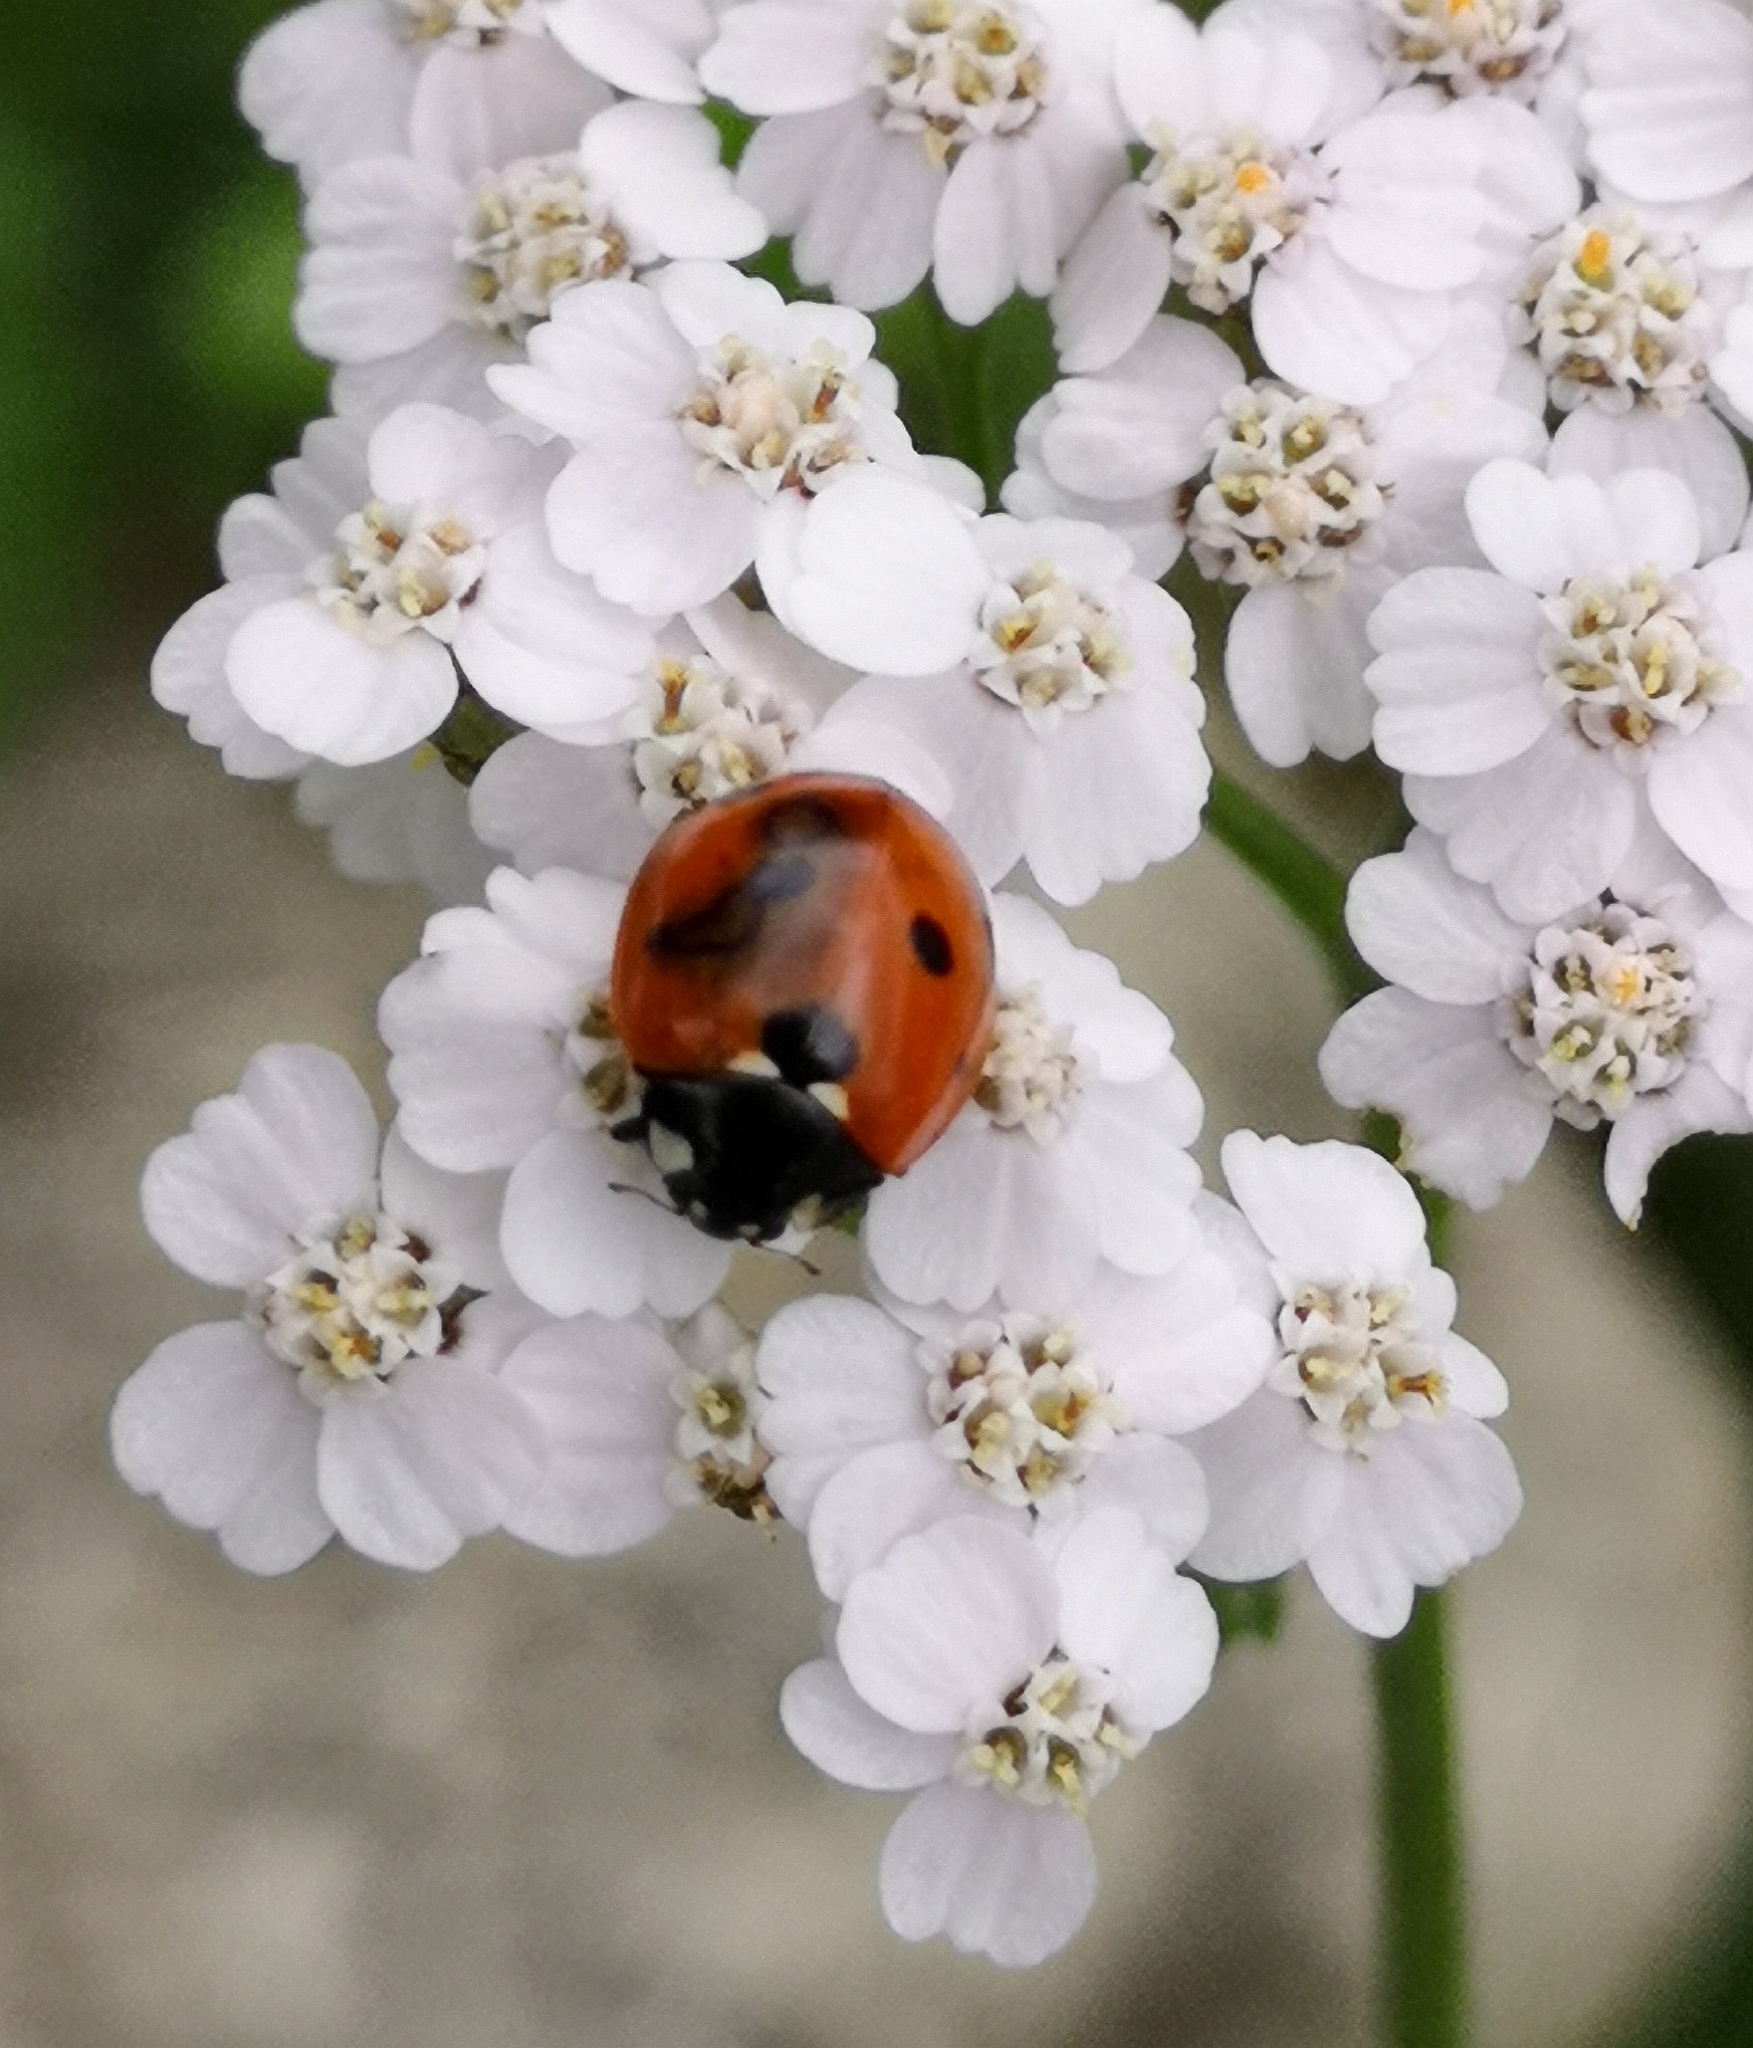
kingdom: Animalia
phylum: Arthropoda
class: Insecta
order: Coleoptera
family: Coccinellidae
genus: Coccinella
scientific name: Coccinella septempunctata
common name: Sevenspotted lady beetle
